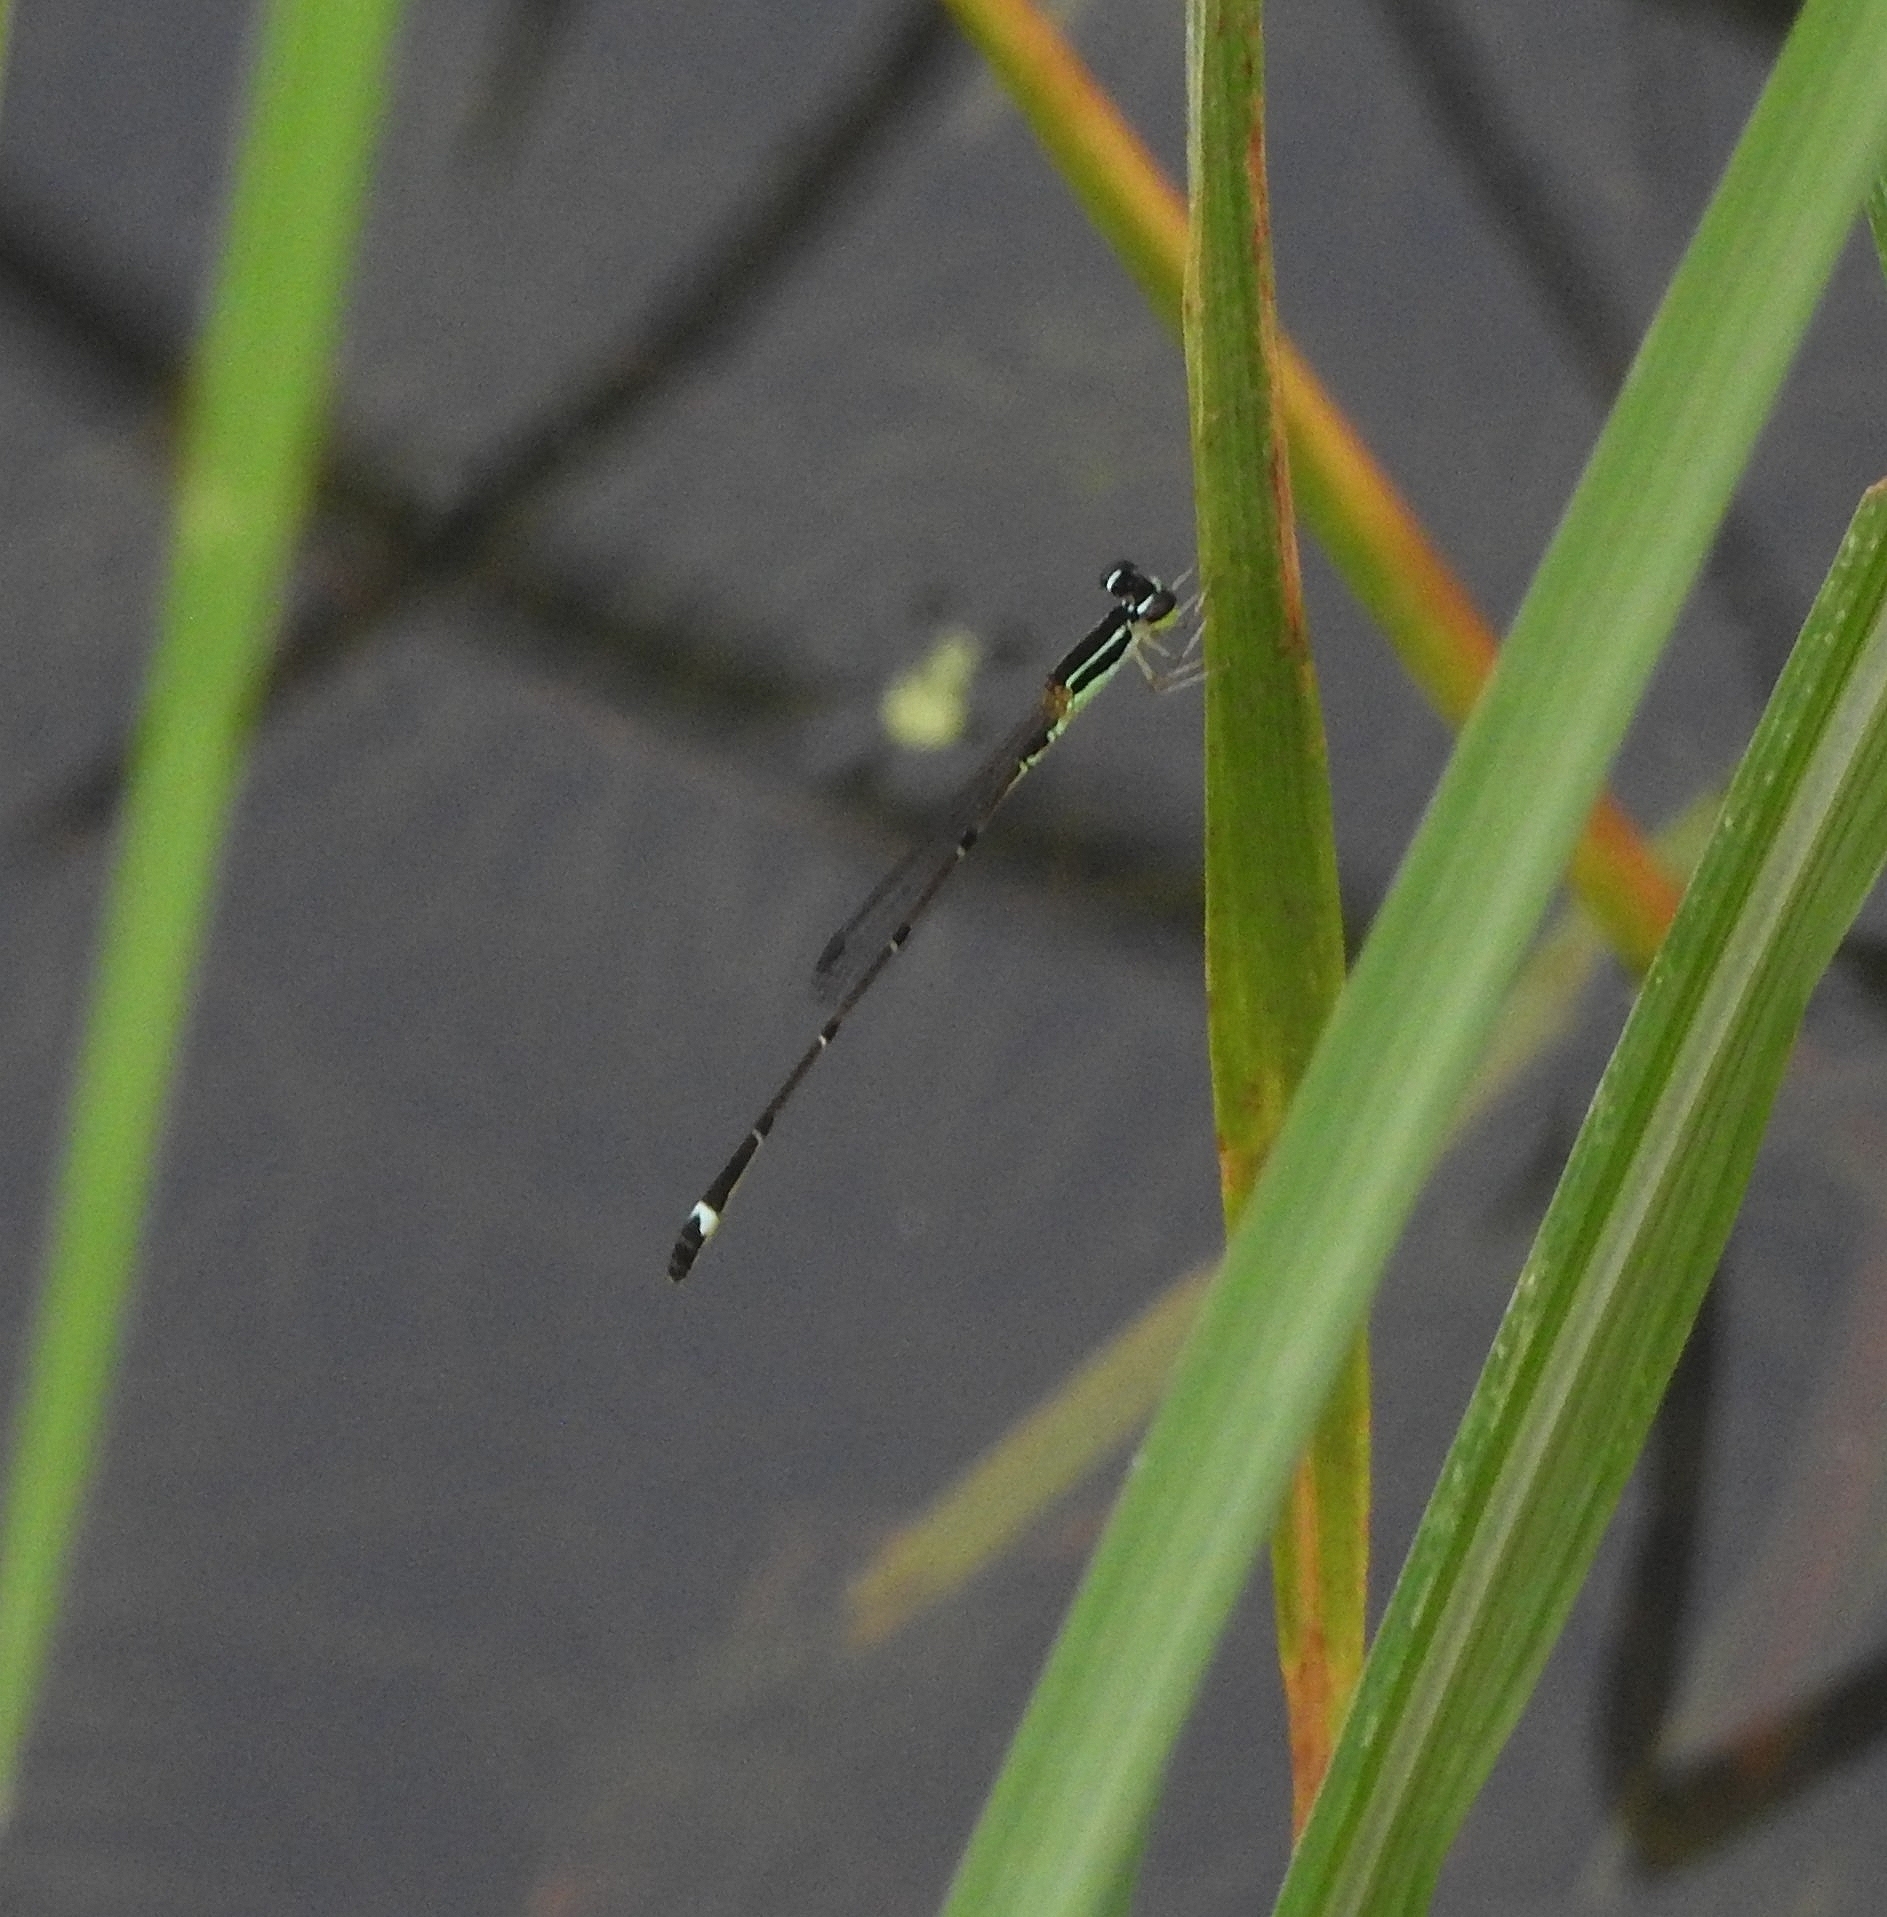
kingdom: Animalia
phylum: Arthropoda
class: Insecta
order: Odonata
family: Coenagrionidae
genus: Mortonagrion
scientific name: Mortonagrion varralli
